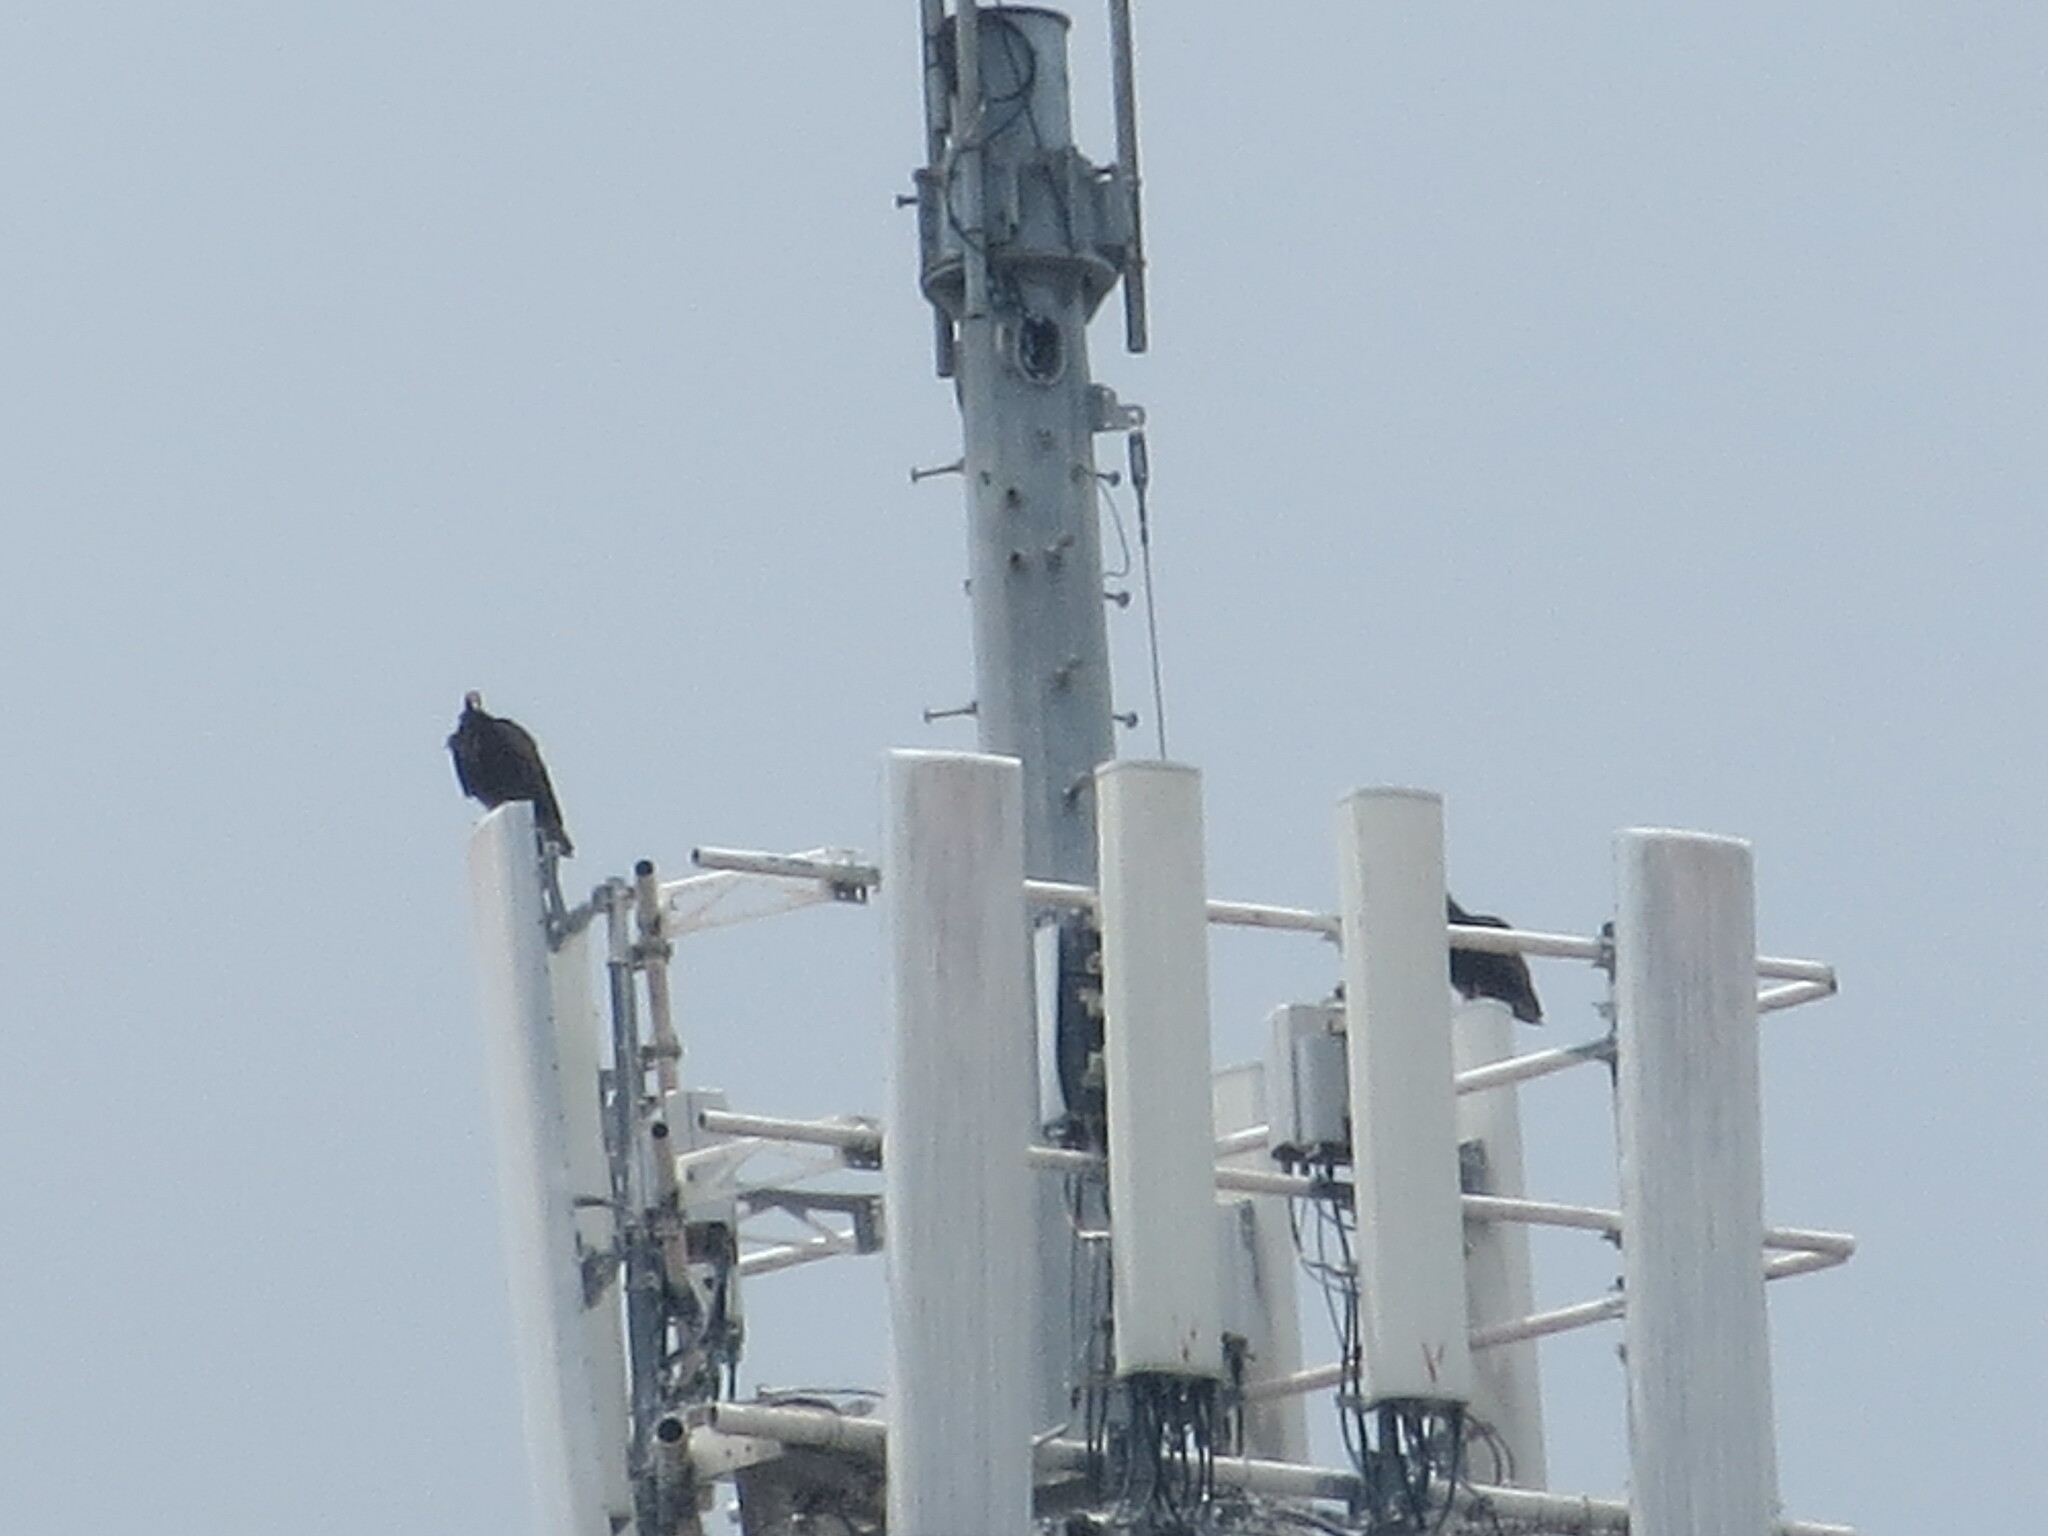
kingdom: Animalia
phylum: Chordata
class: Aves
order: Accipitriformes
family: Cathartidae
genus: Cathartes
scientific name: Cathartes aura
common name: Turkey vulture
